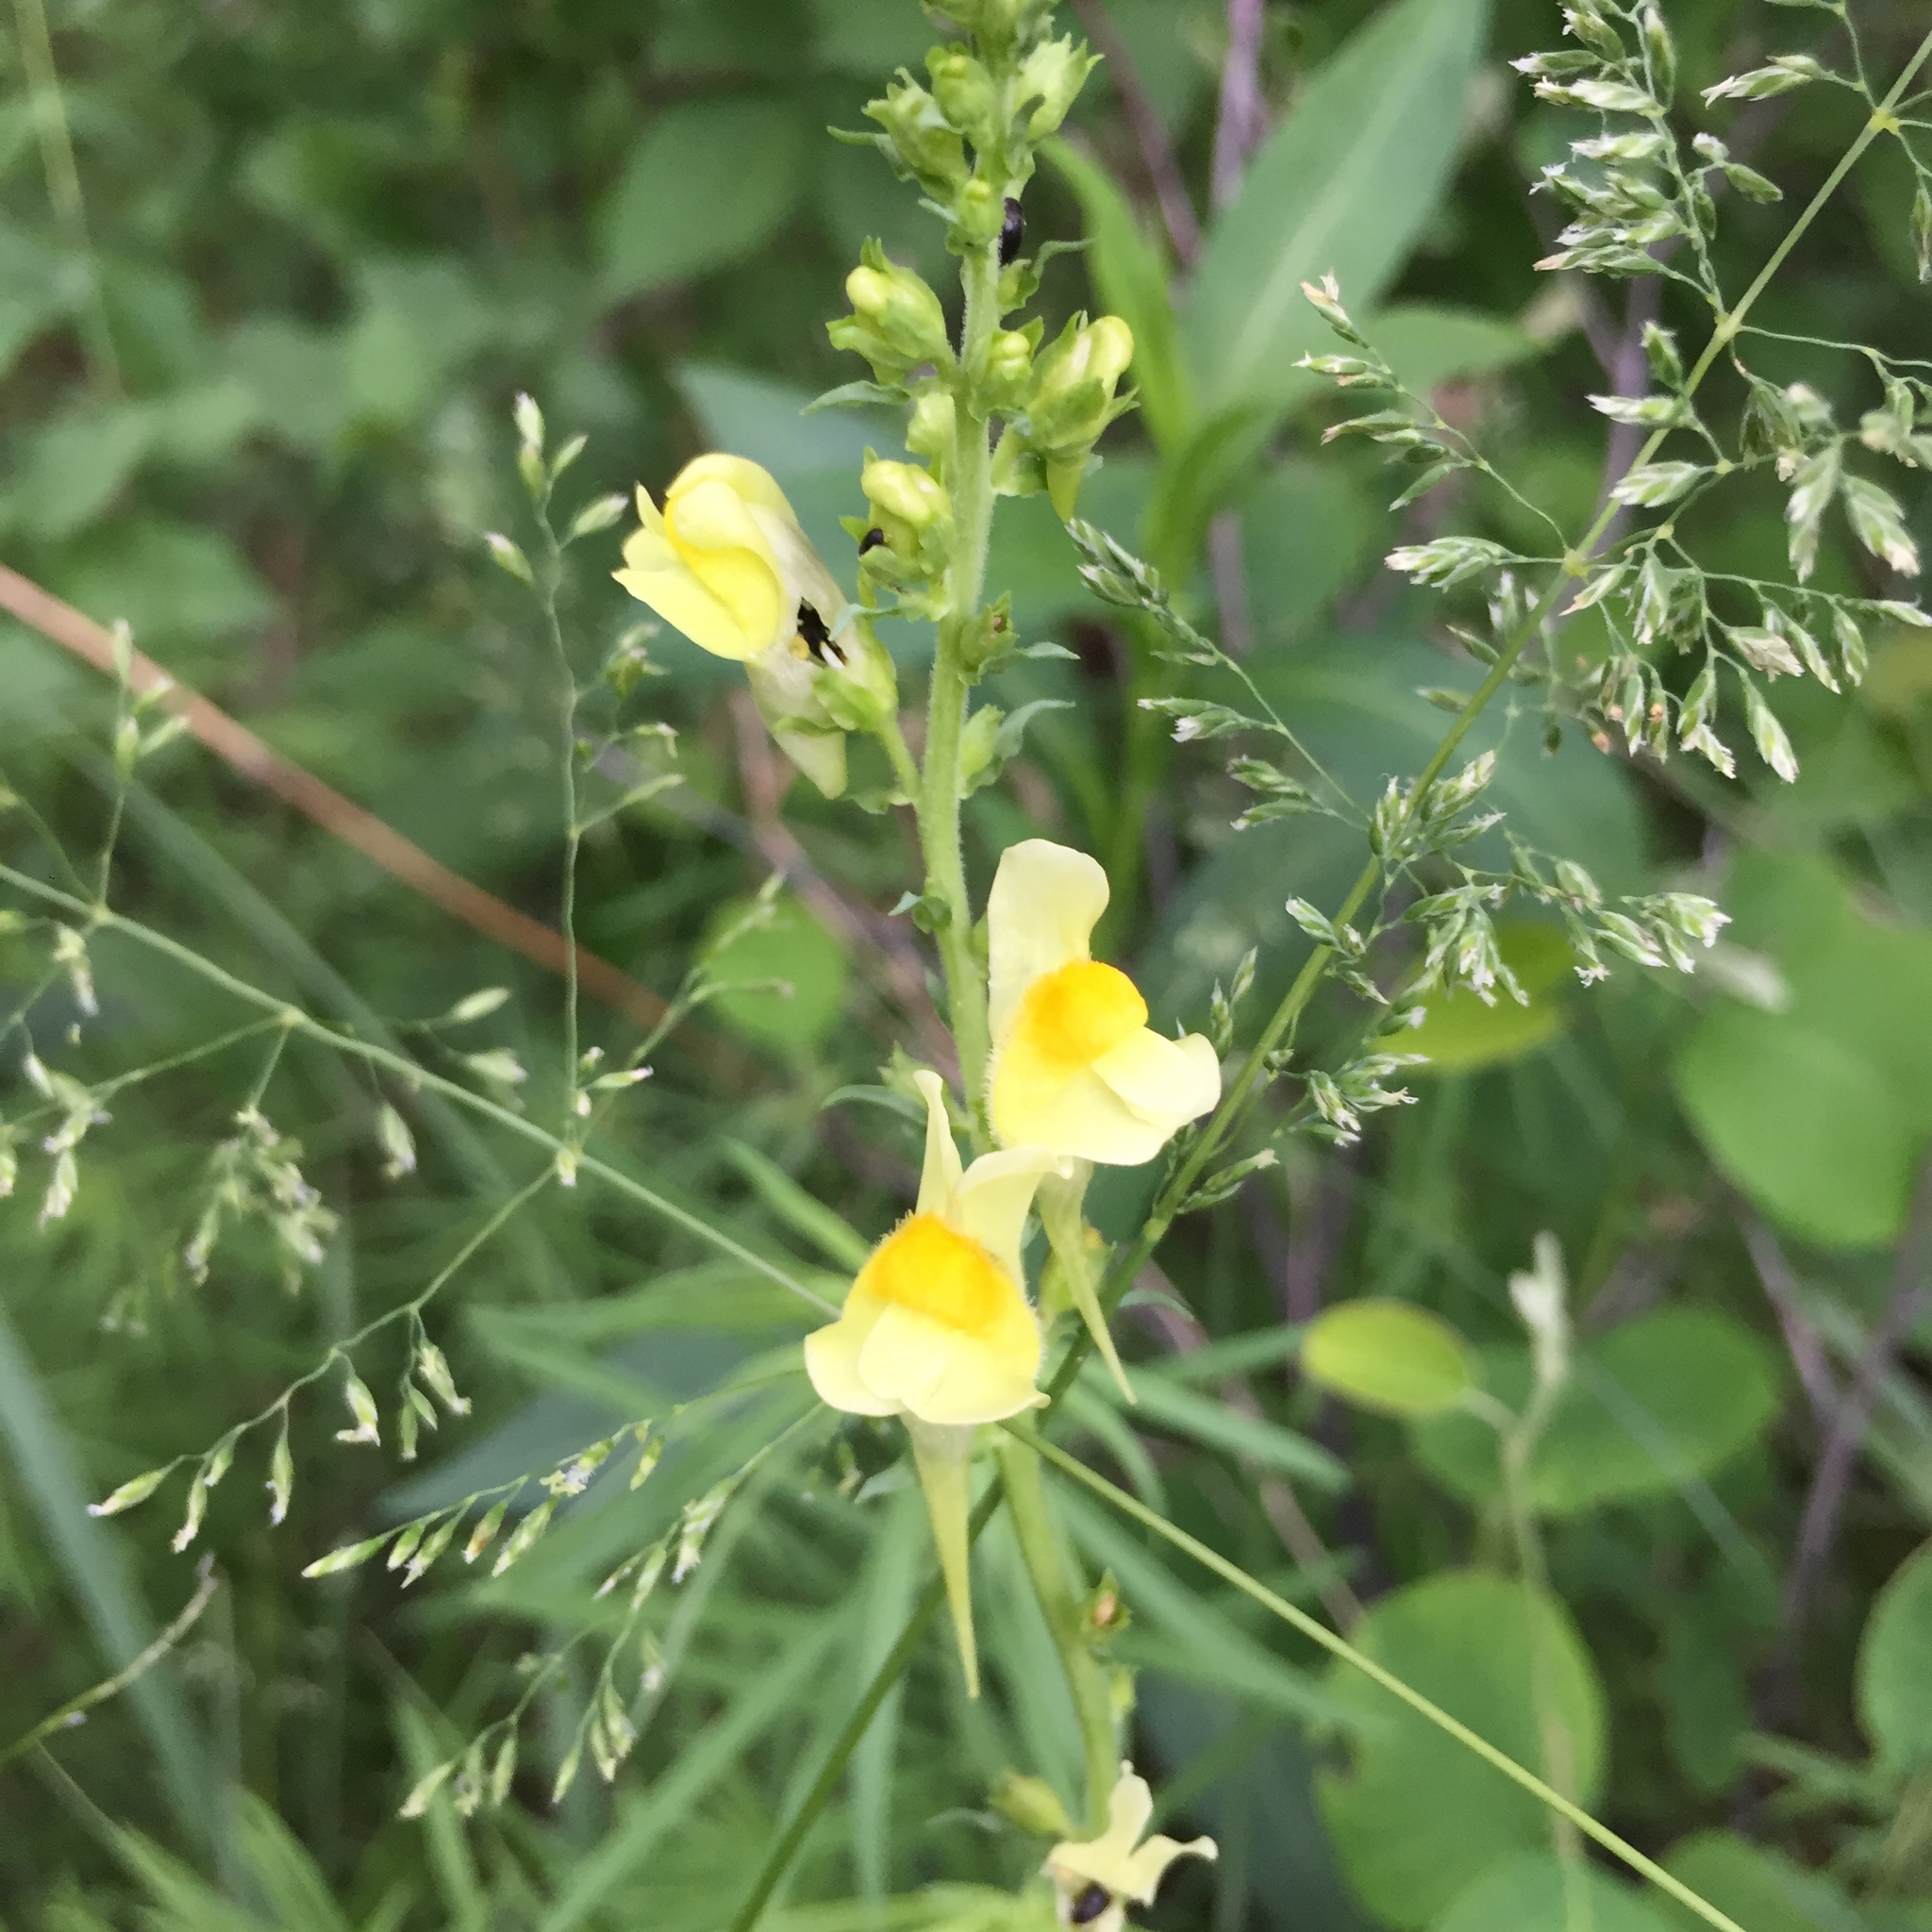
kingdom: Plantae
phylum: Tracheophyta
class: Magnoliopsida
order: Lamiales
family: Plantaginaceae
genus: Linaria
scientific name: Linaria vulgaris
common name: Butter and eggs
